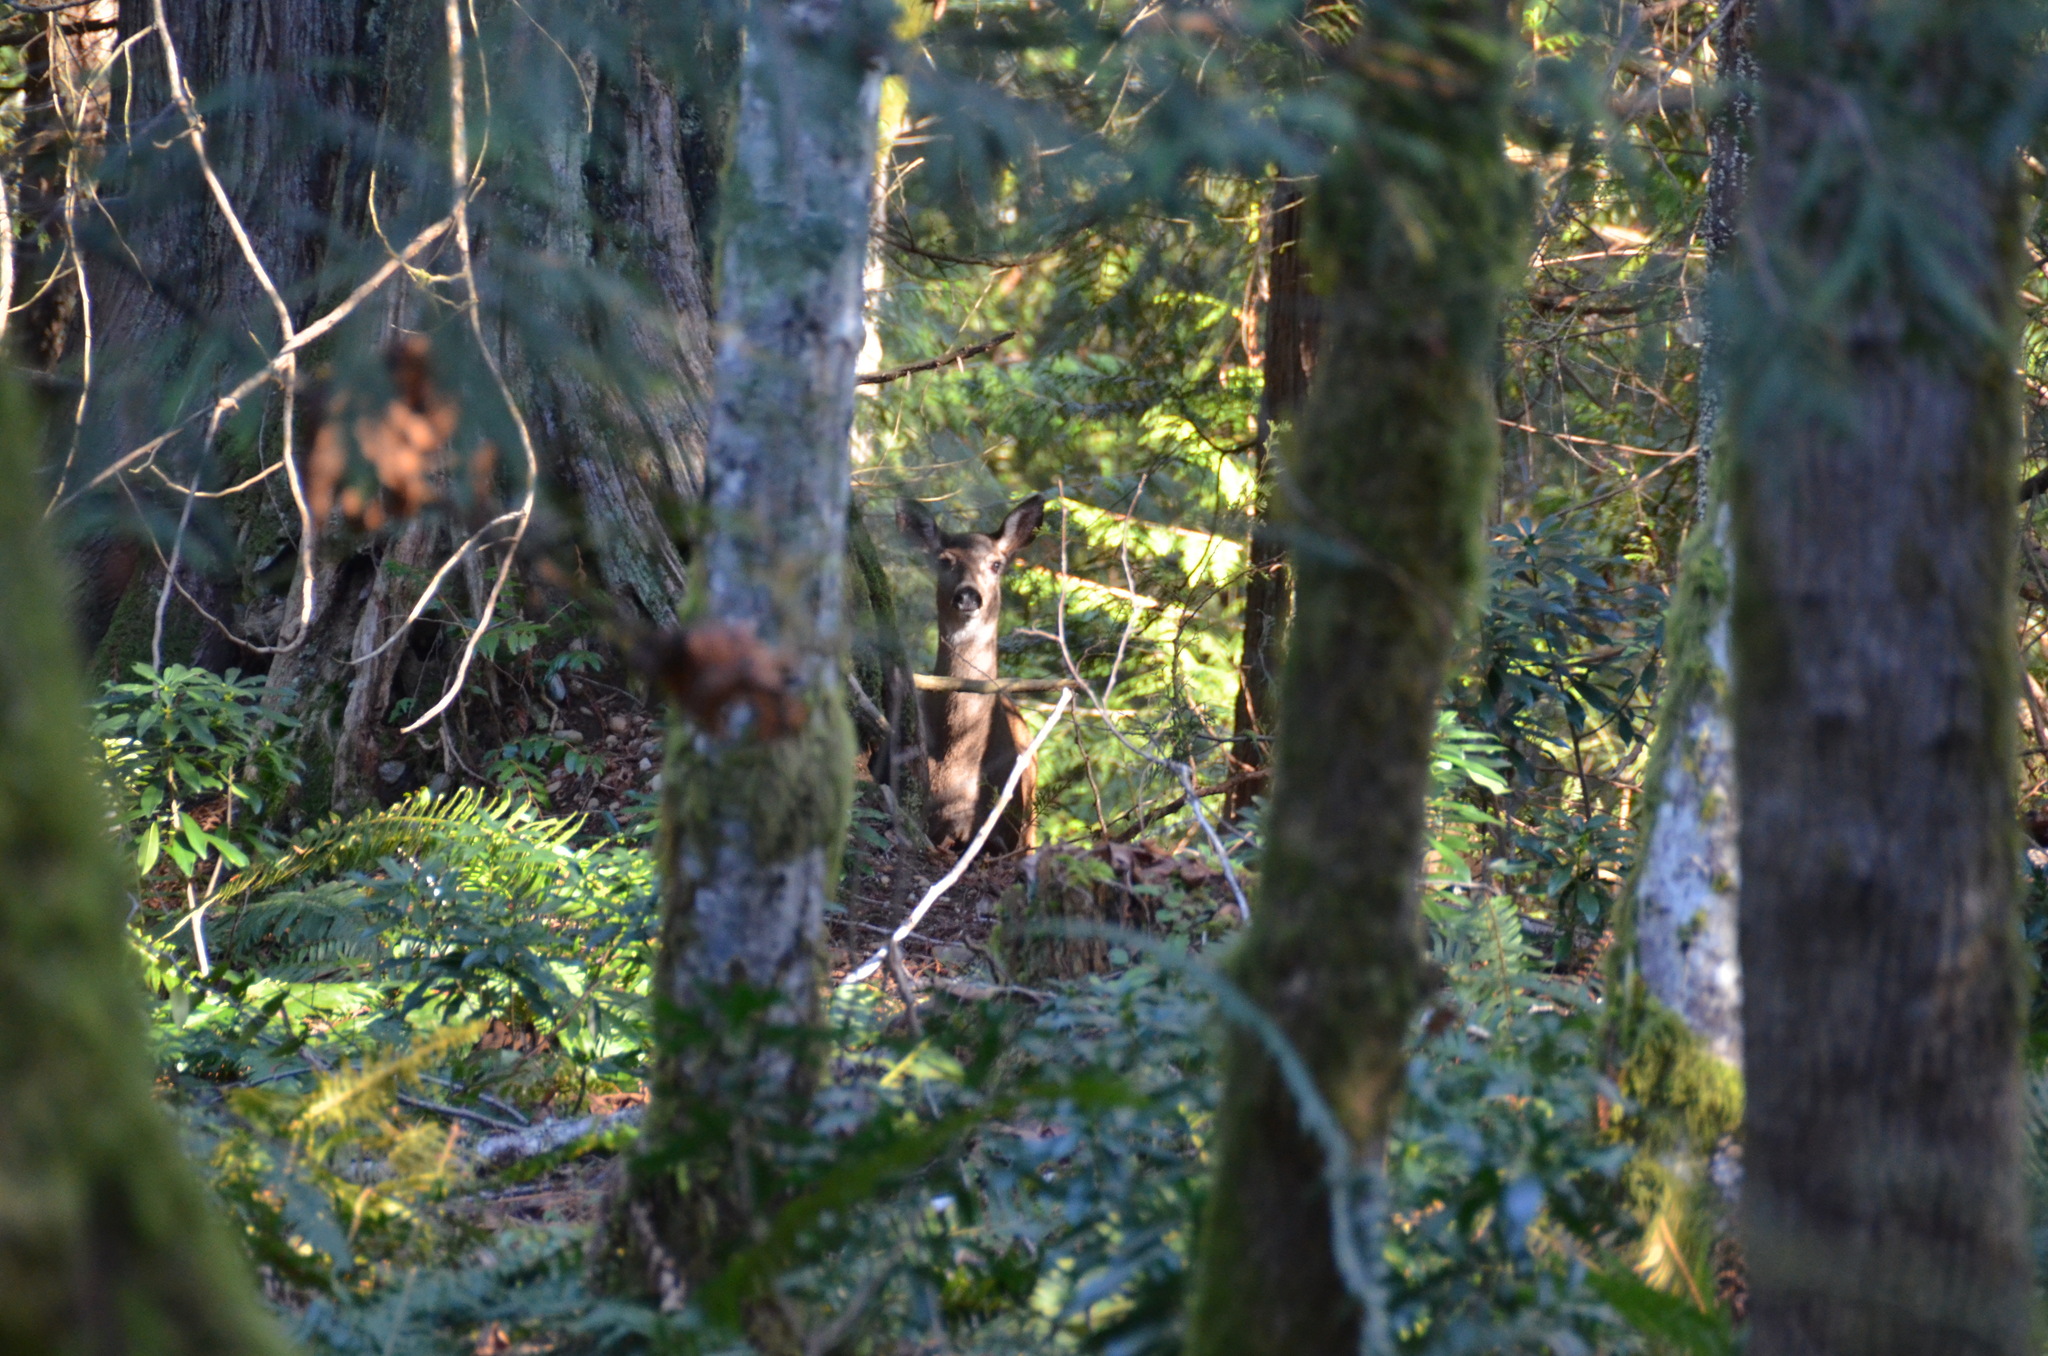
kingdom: Animalia
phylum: Chordata
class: Mammalia
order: Artiodactyla
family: Cervidae
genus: Odocoileus
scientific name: Odocoileus hemionus
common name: Mule deer
